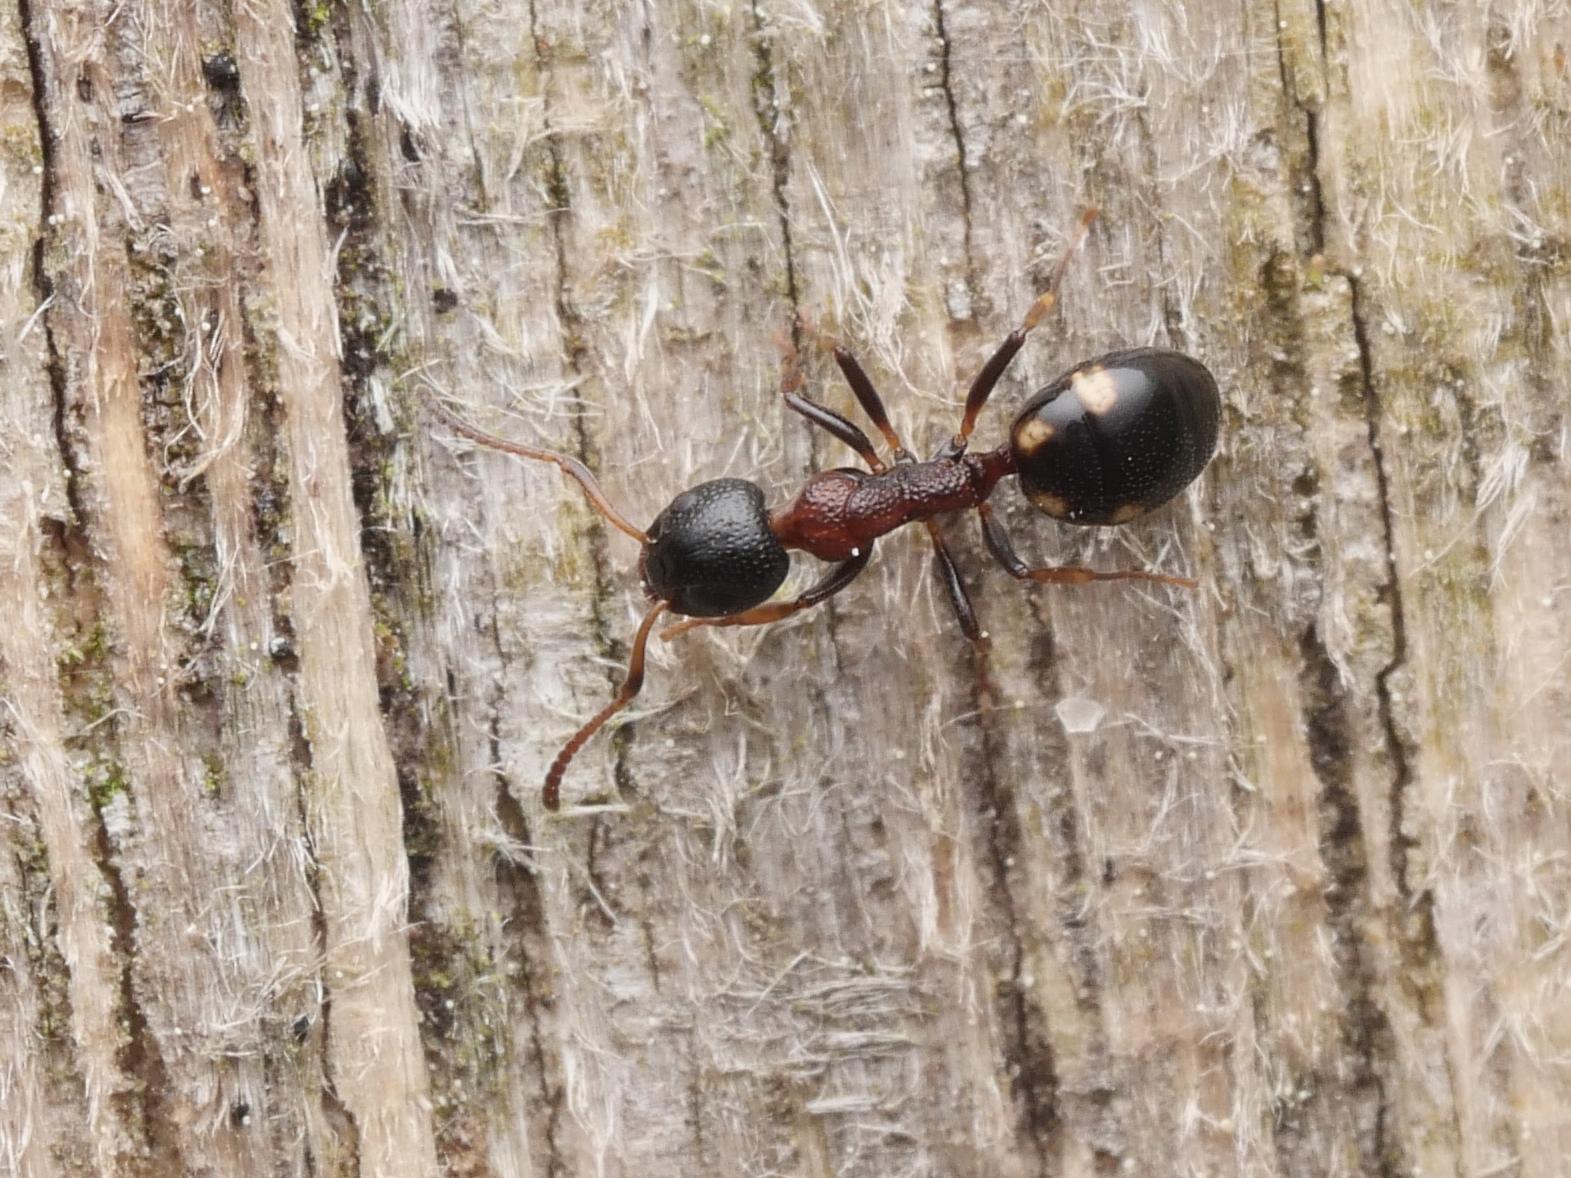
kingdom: Animalia
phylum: Arthropoda
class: Insecta
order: Hymenoptera
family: Formicidae
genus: Dolichoderus
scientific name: Dolichoderus quadripunctatus
